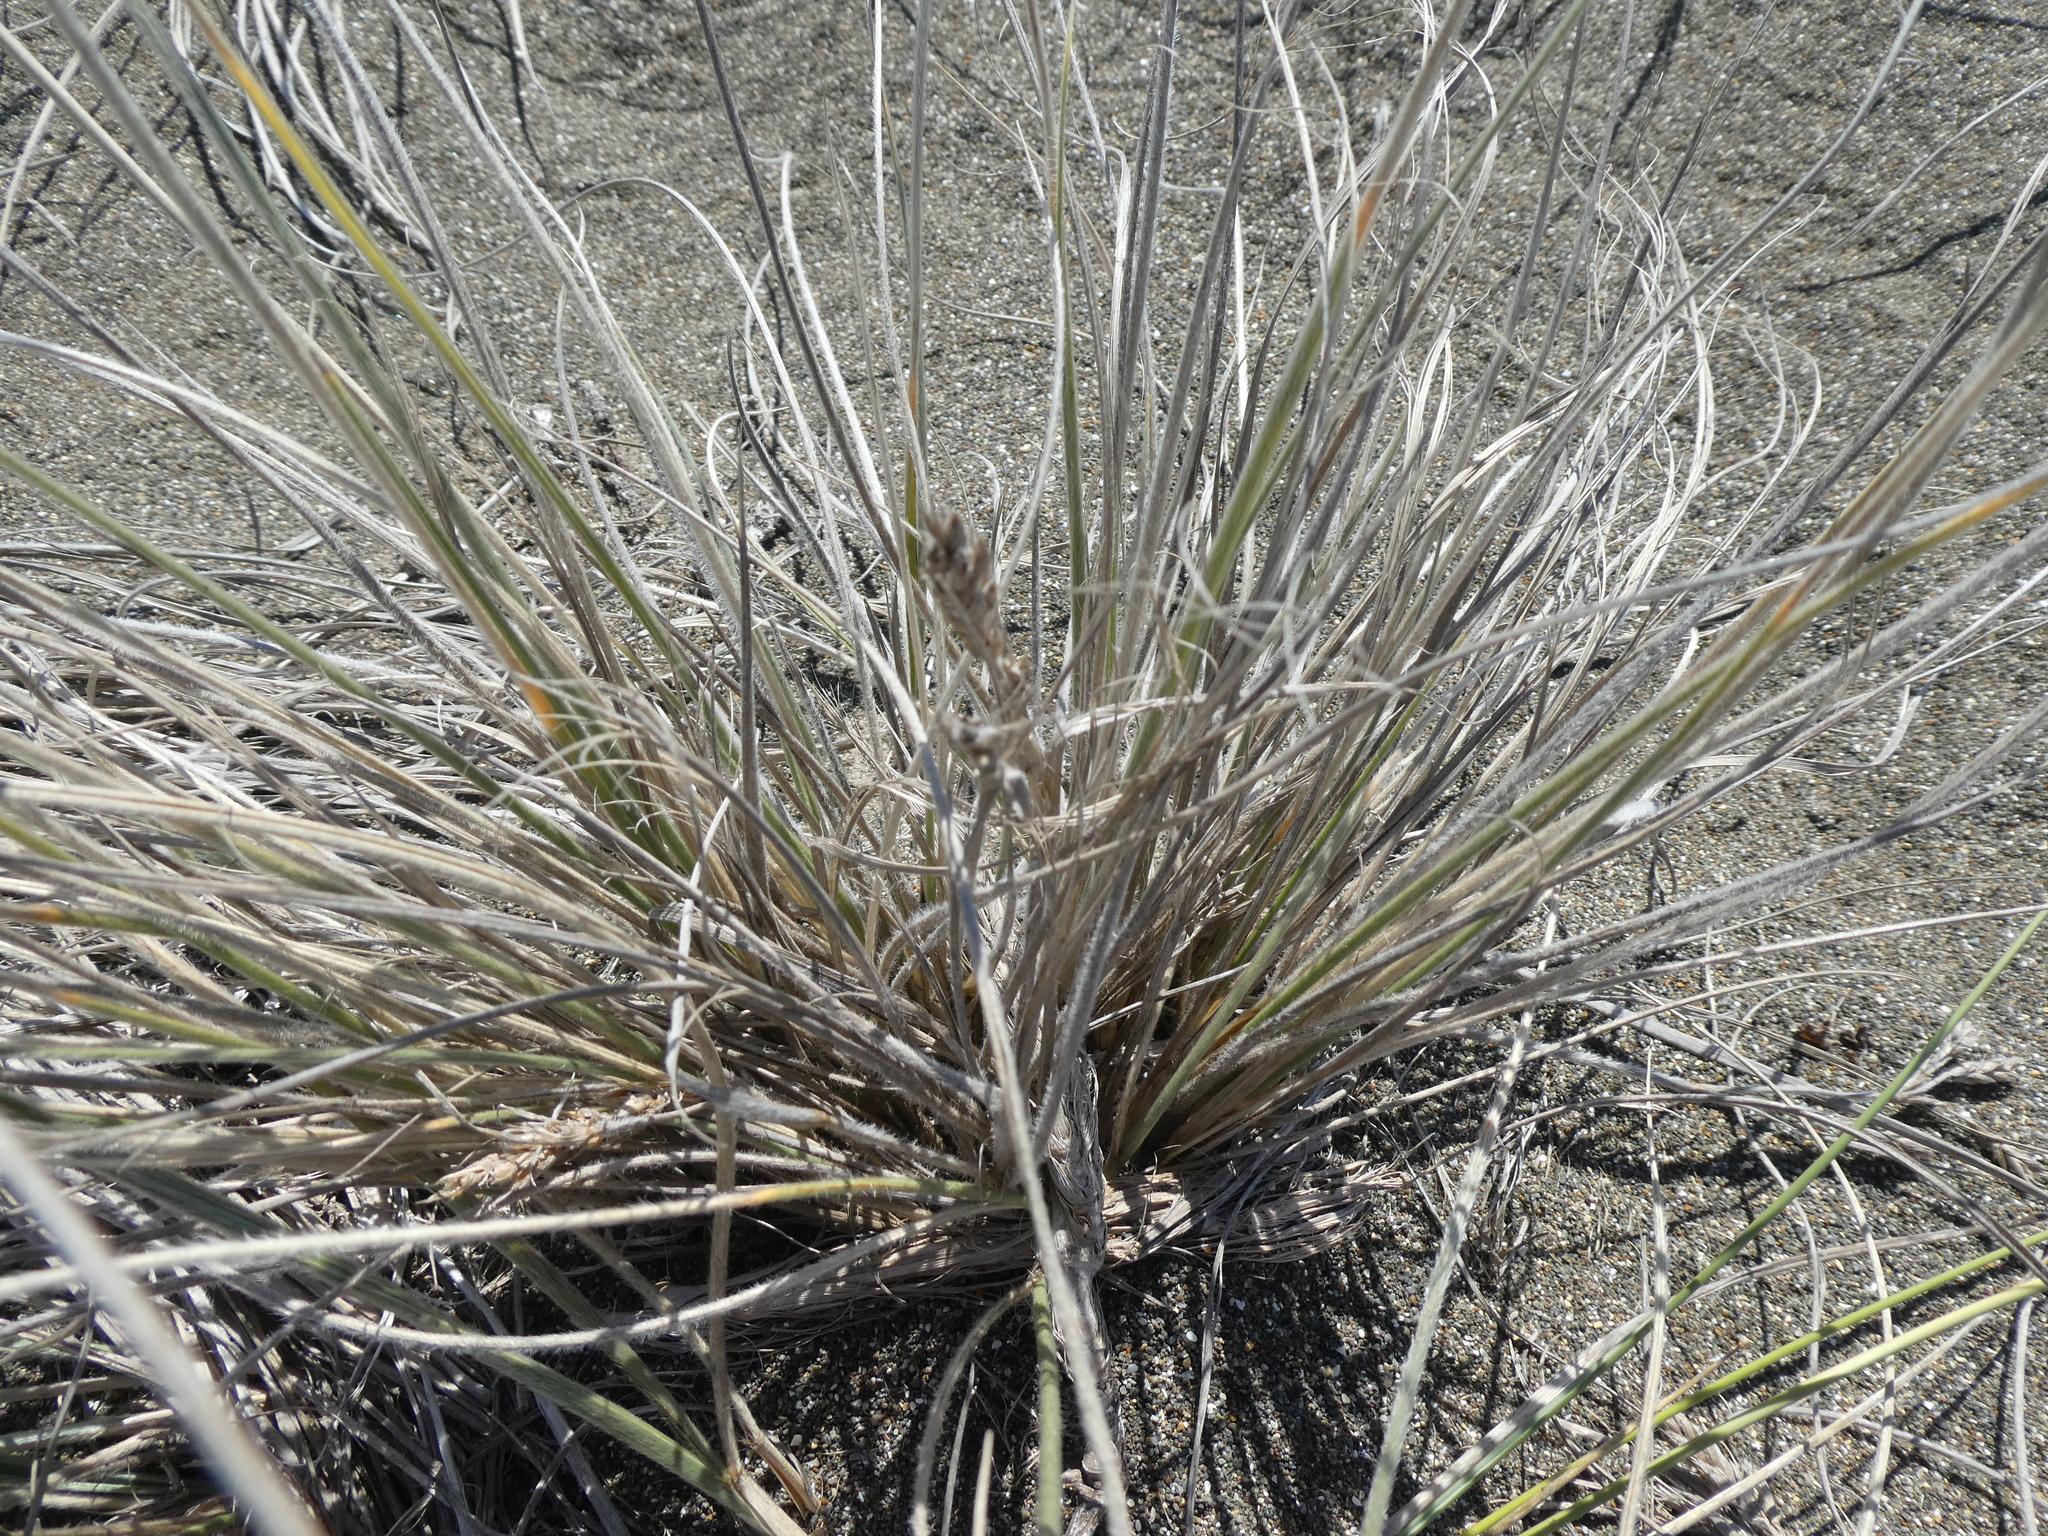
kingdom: Plantae
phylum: Tracheophyta
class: Liliopsida
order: Poales
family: Poaceae
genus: Spinifex
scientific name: Spinifex sericeus
